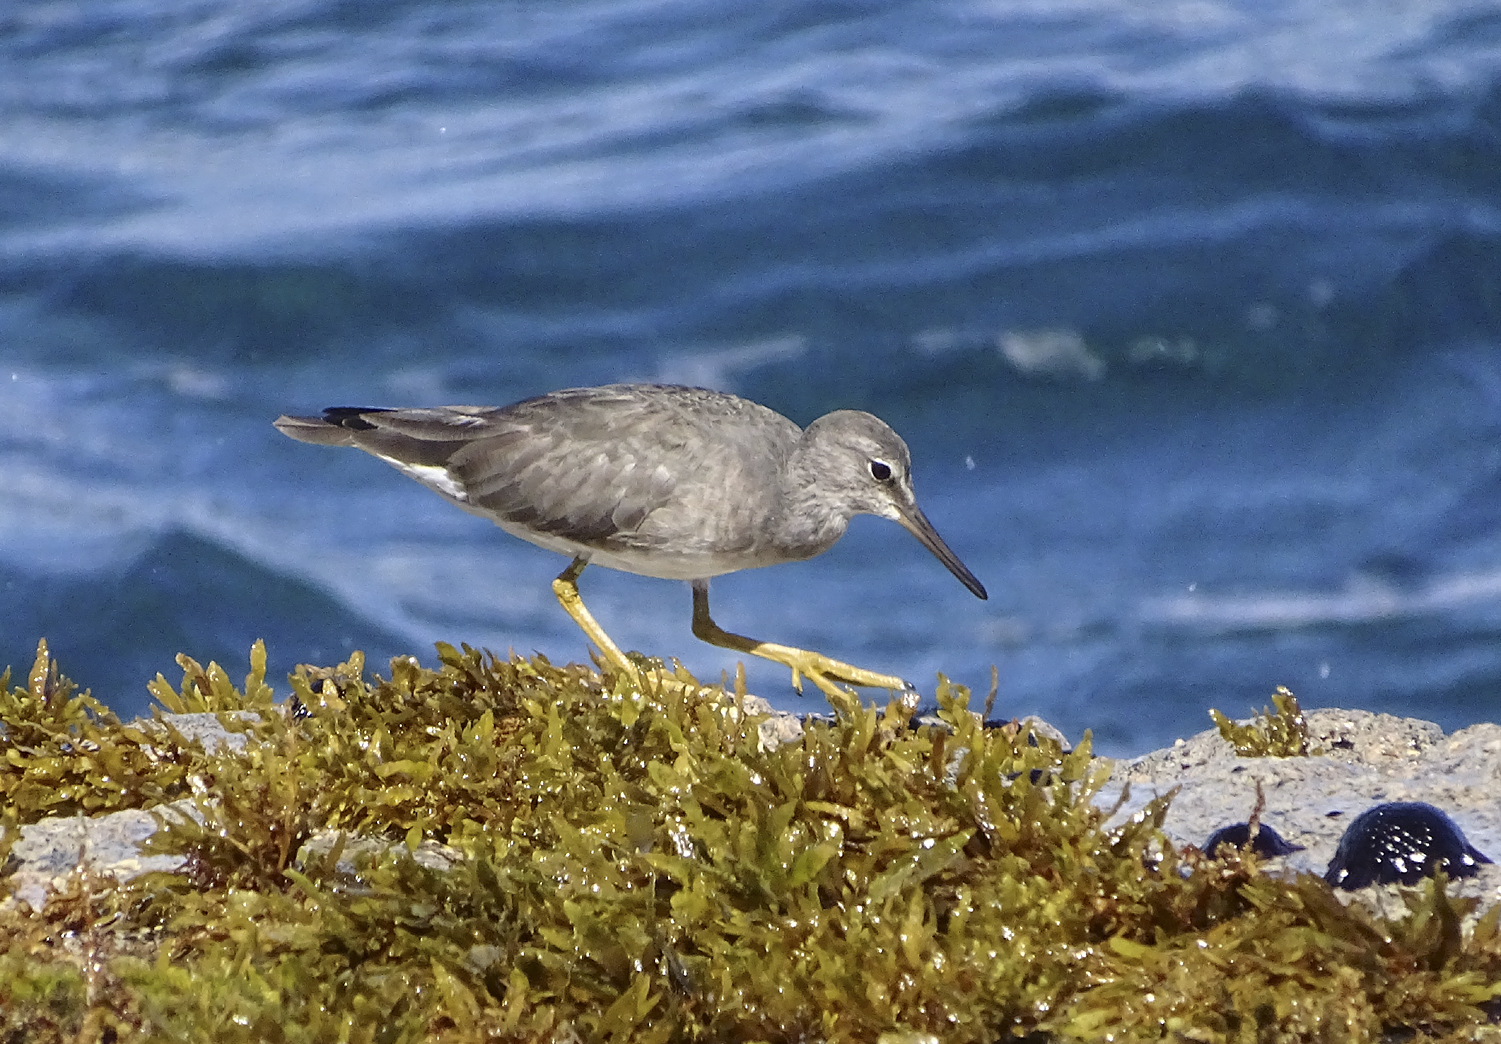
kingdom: Animalia
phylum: Chordata
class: Aves
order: Charadriiformes
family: Scolopacidae
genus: Tringa
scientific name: Tringa incana
